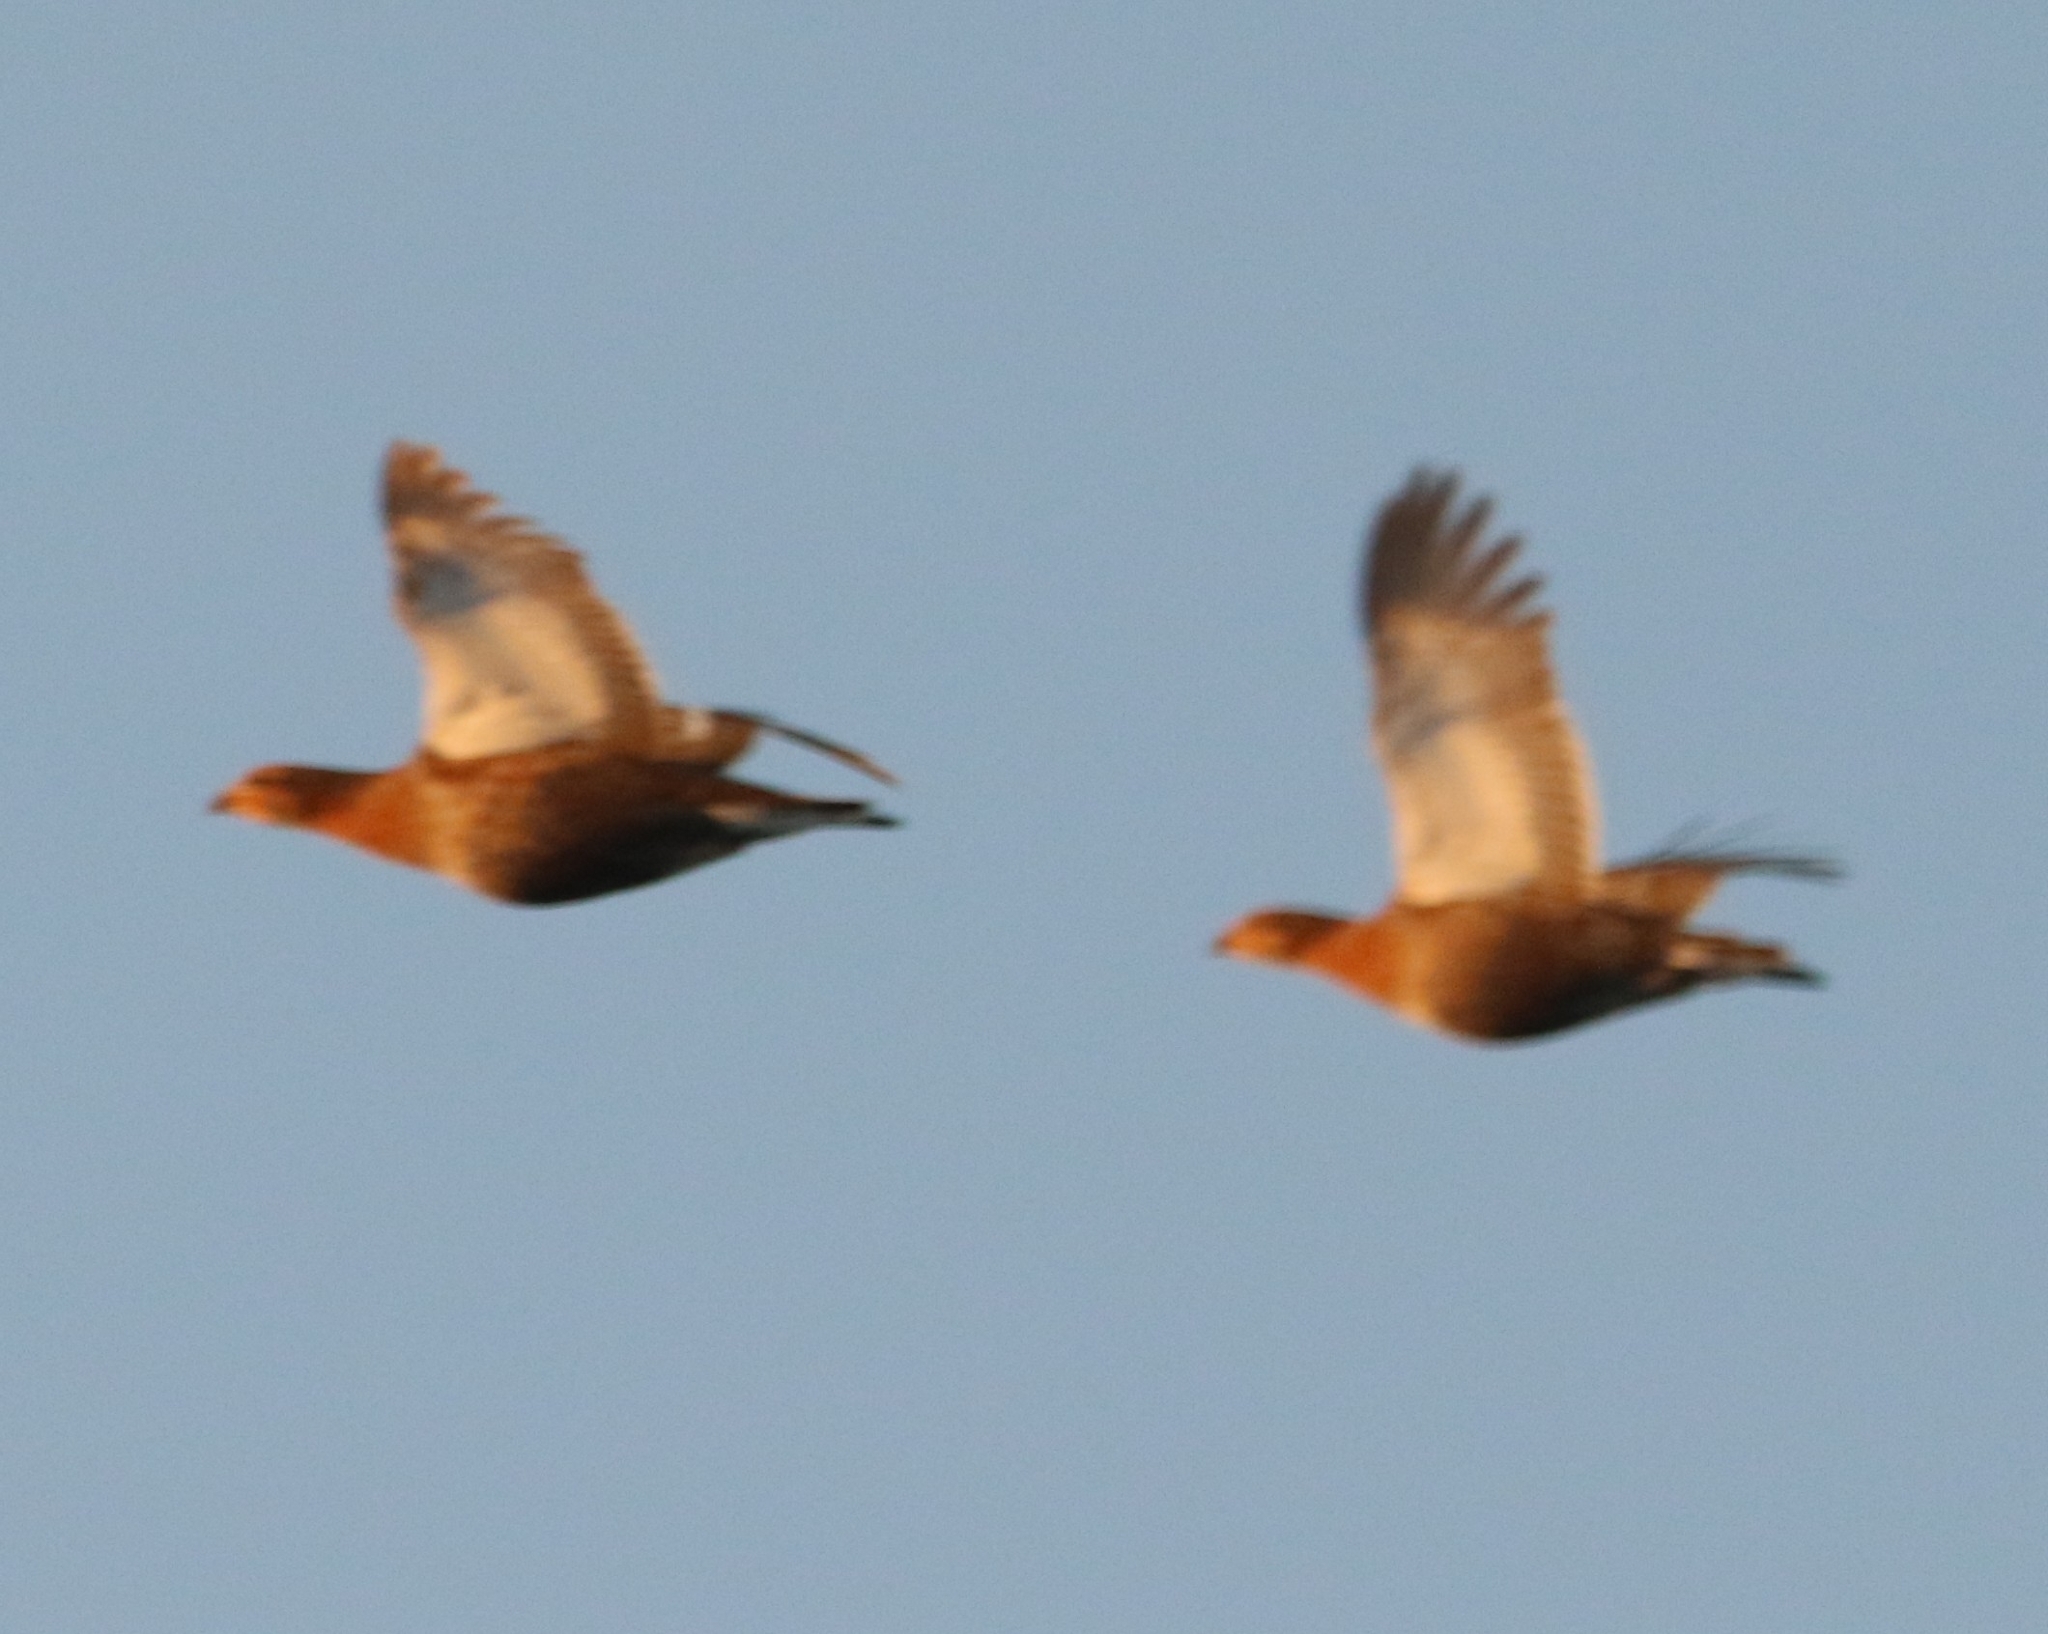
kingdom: Animalia
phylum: Chordata
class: Aves
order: Galliformes
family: Phasianidae
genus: Lyrurus
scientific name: Lyrurus tetrix
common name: Black grouse
